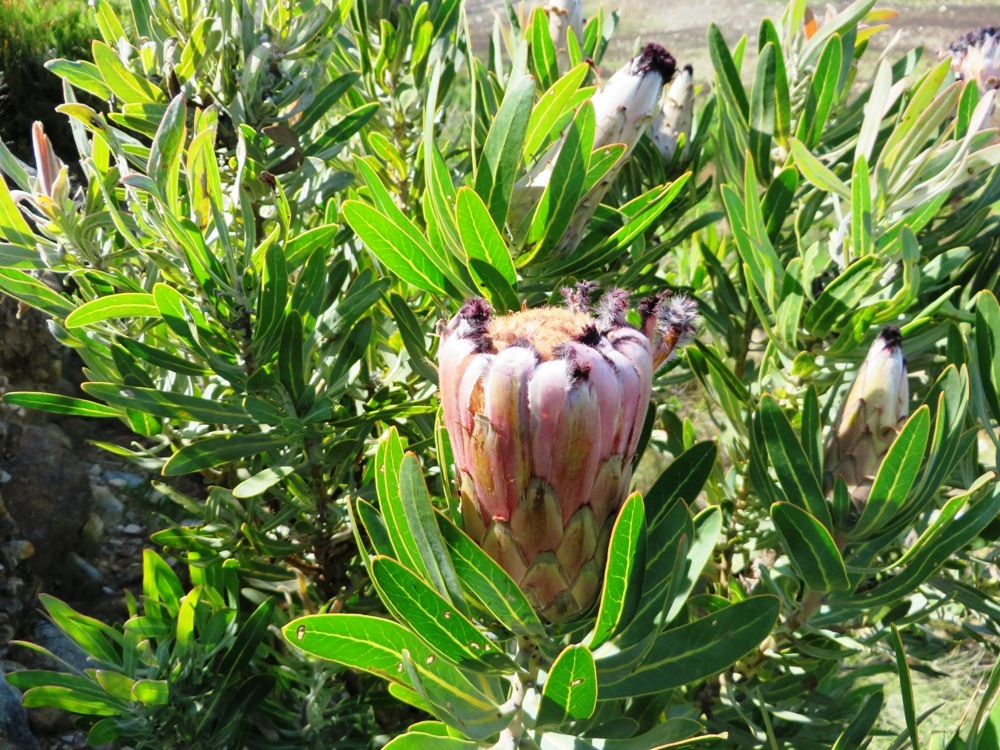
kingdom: Plantae
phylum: Tracheophyta
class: Magnoliopsida
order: Proteales
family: Proteaceae
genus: Protea
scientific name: Protea neriifolia
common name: Blue sugarbush
